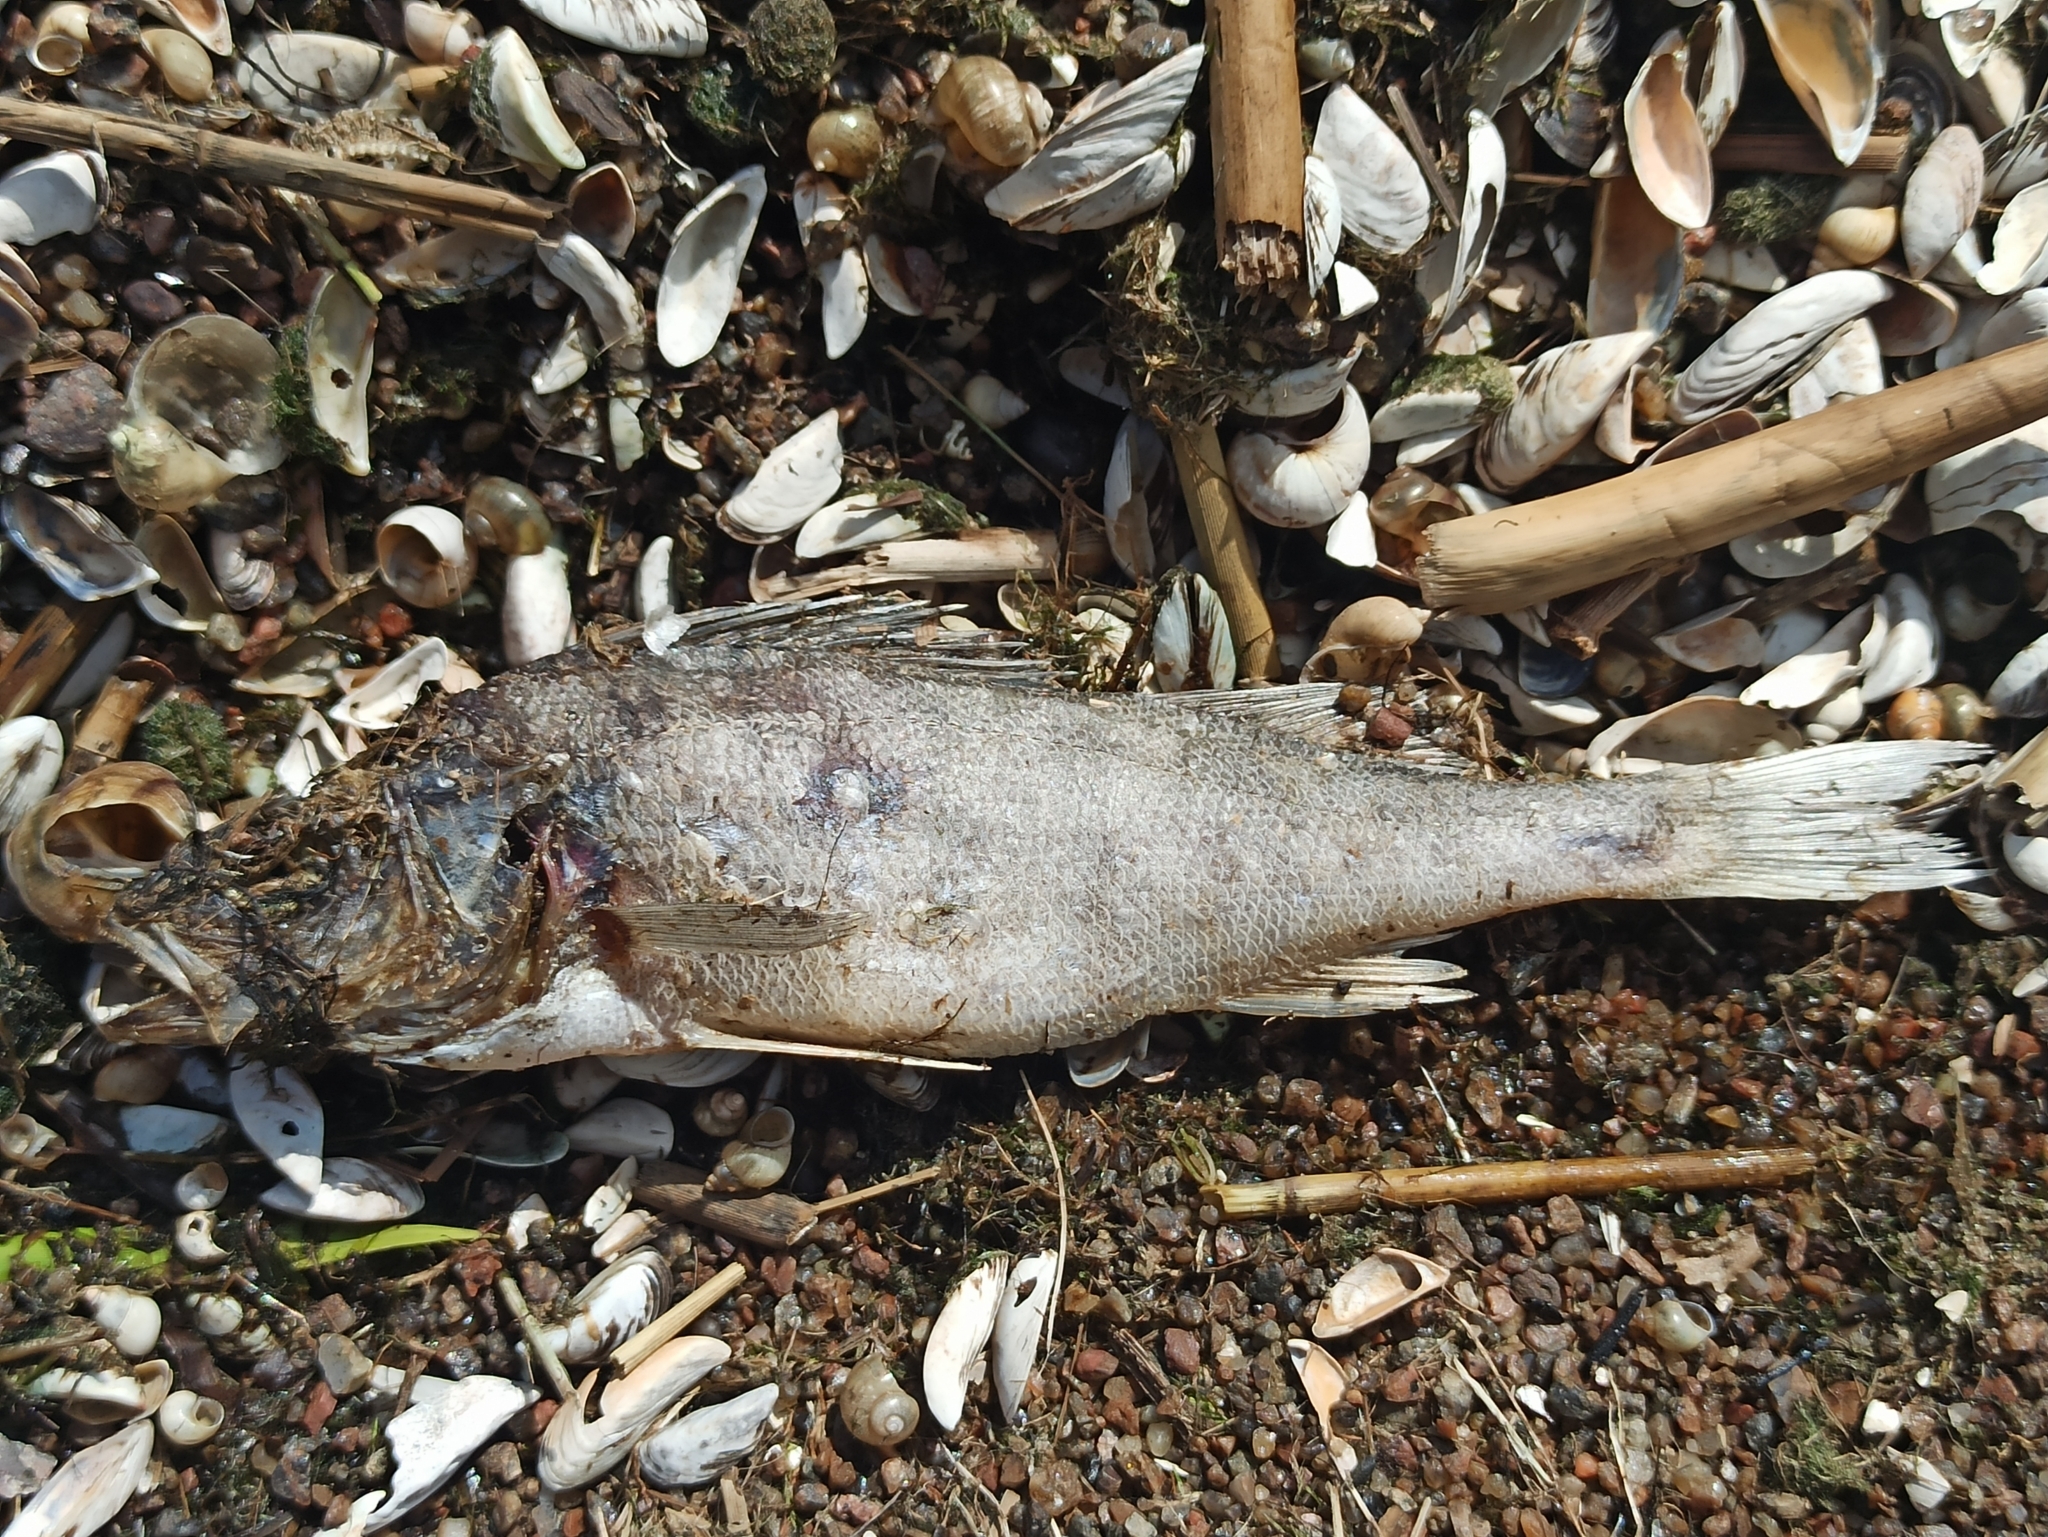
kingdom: Animalia
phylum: Chordata
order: Perciformes
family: Percidae
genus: Perca
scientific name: Perca fluviatilis
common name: Perch
